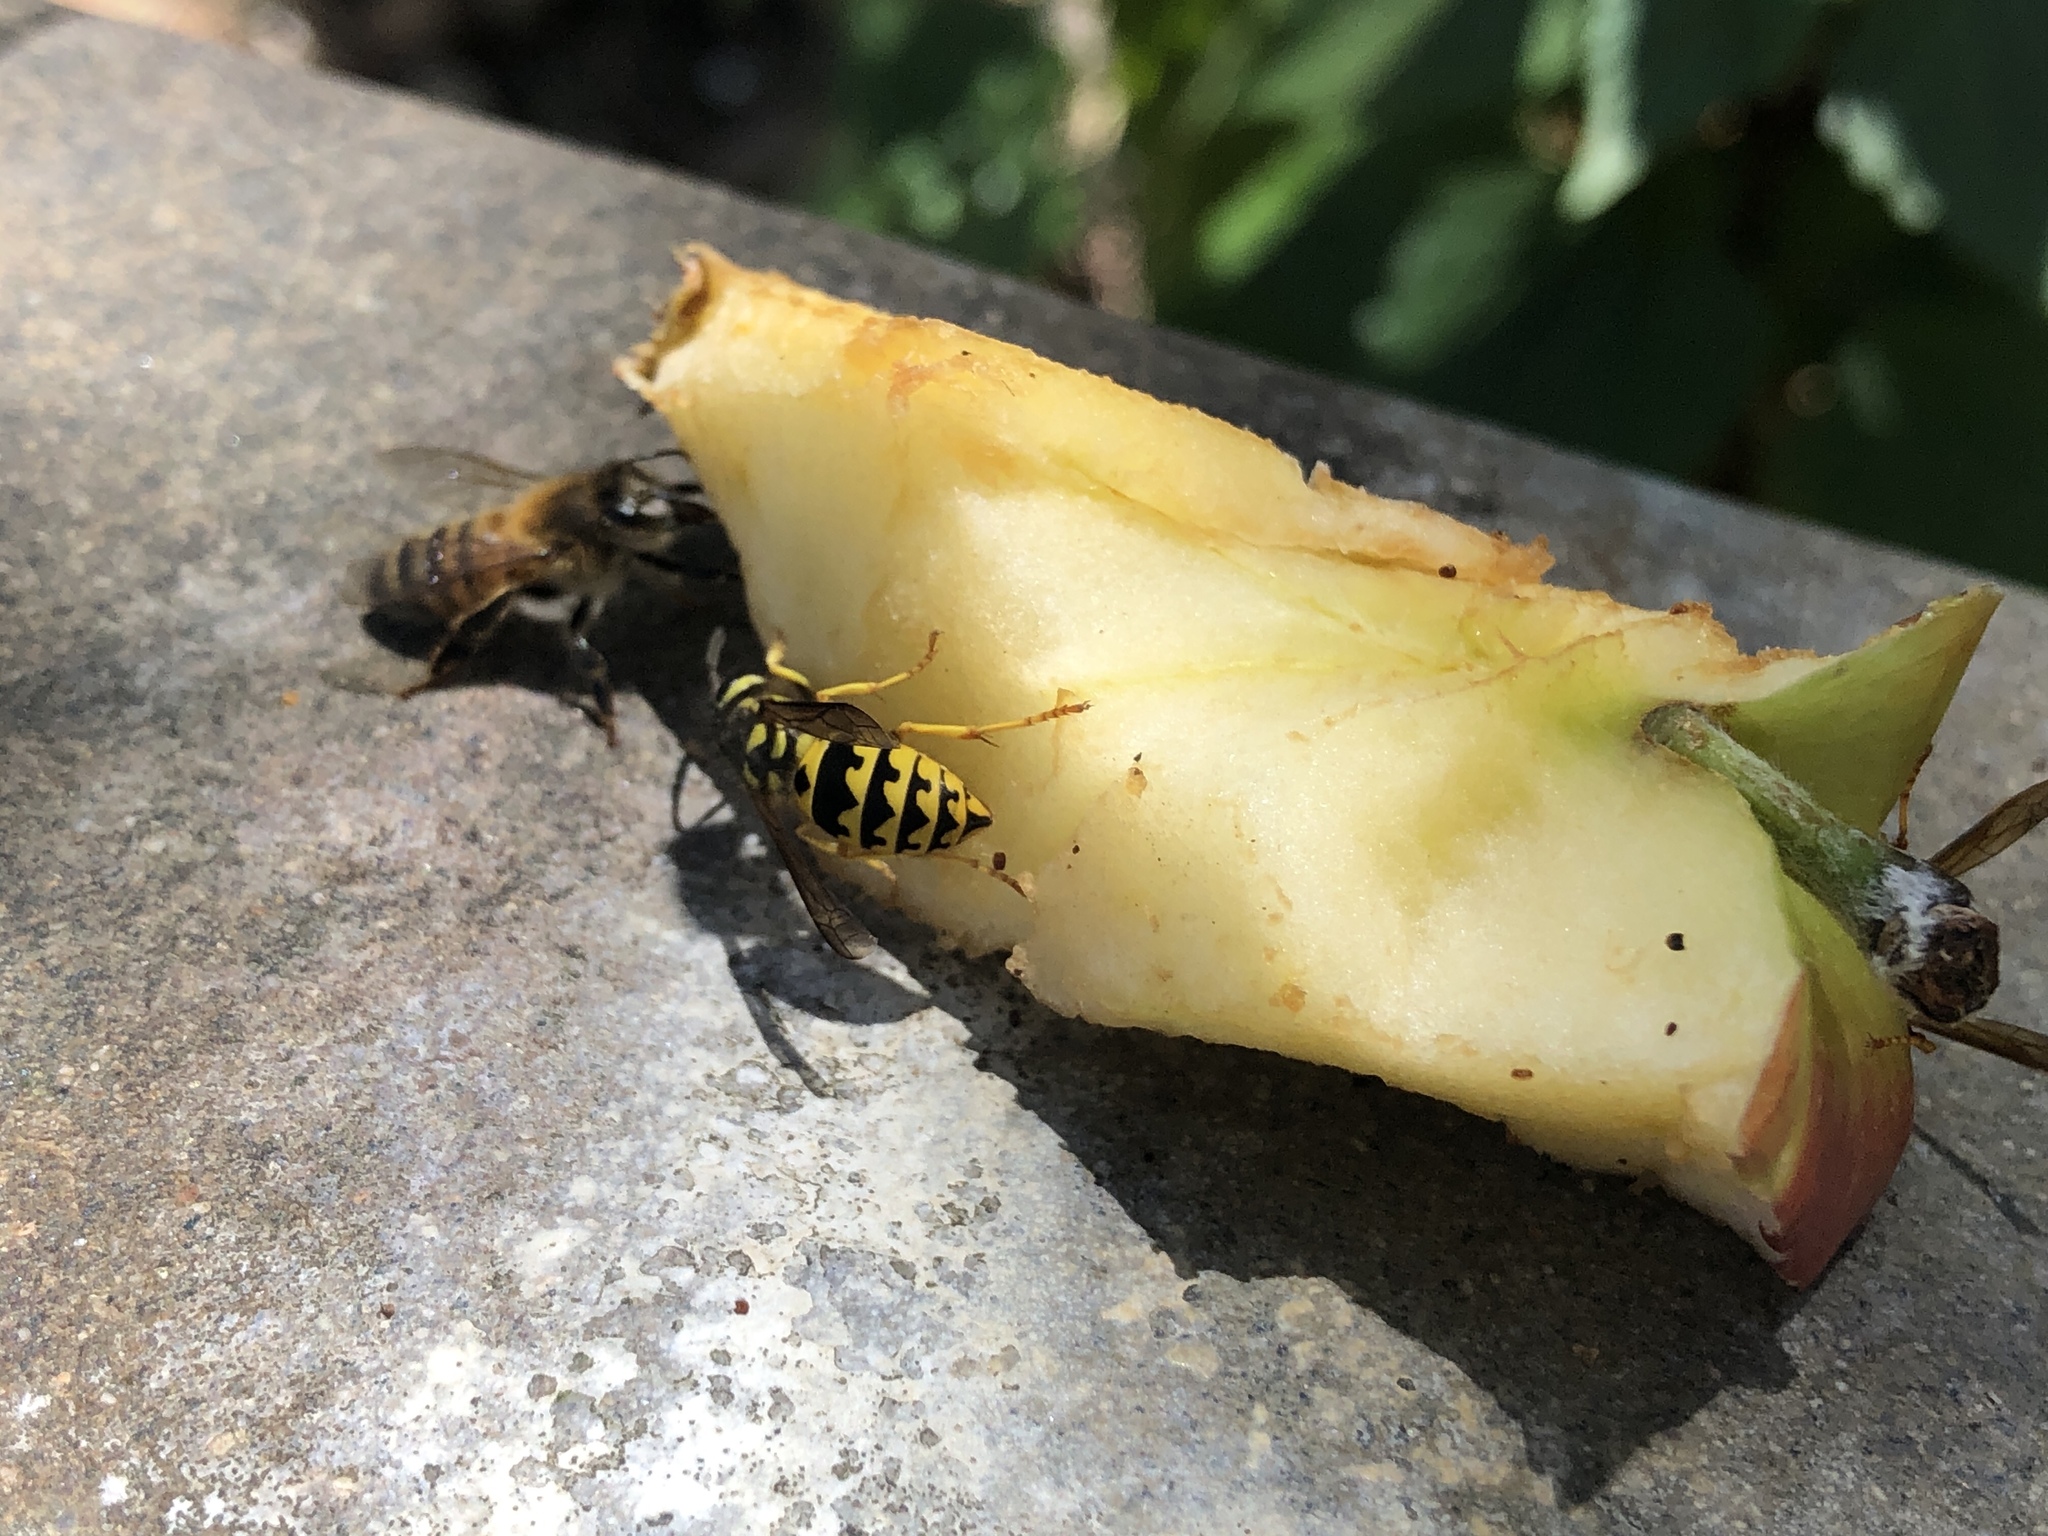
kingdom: Animalia
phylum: Arthropoda
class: Insecta
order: Hymenoptera
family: Vespidae
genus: Vespula
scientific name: Vespula pensylvanica
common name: Western yellowjacket
